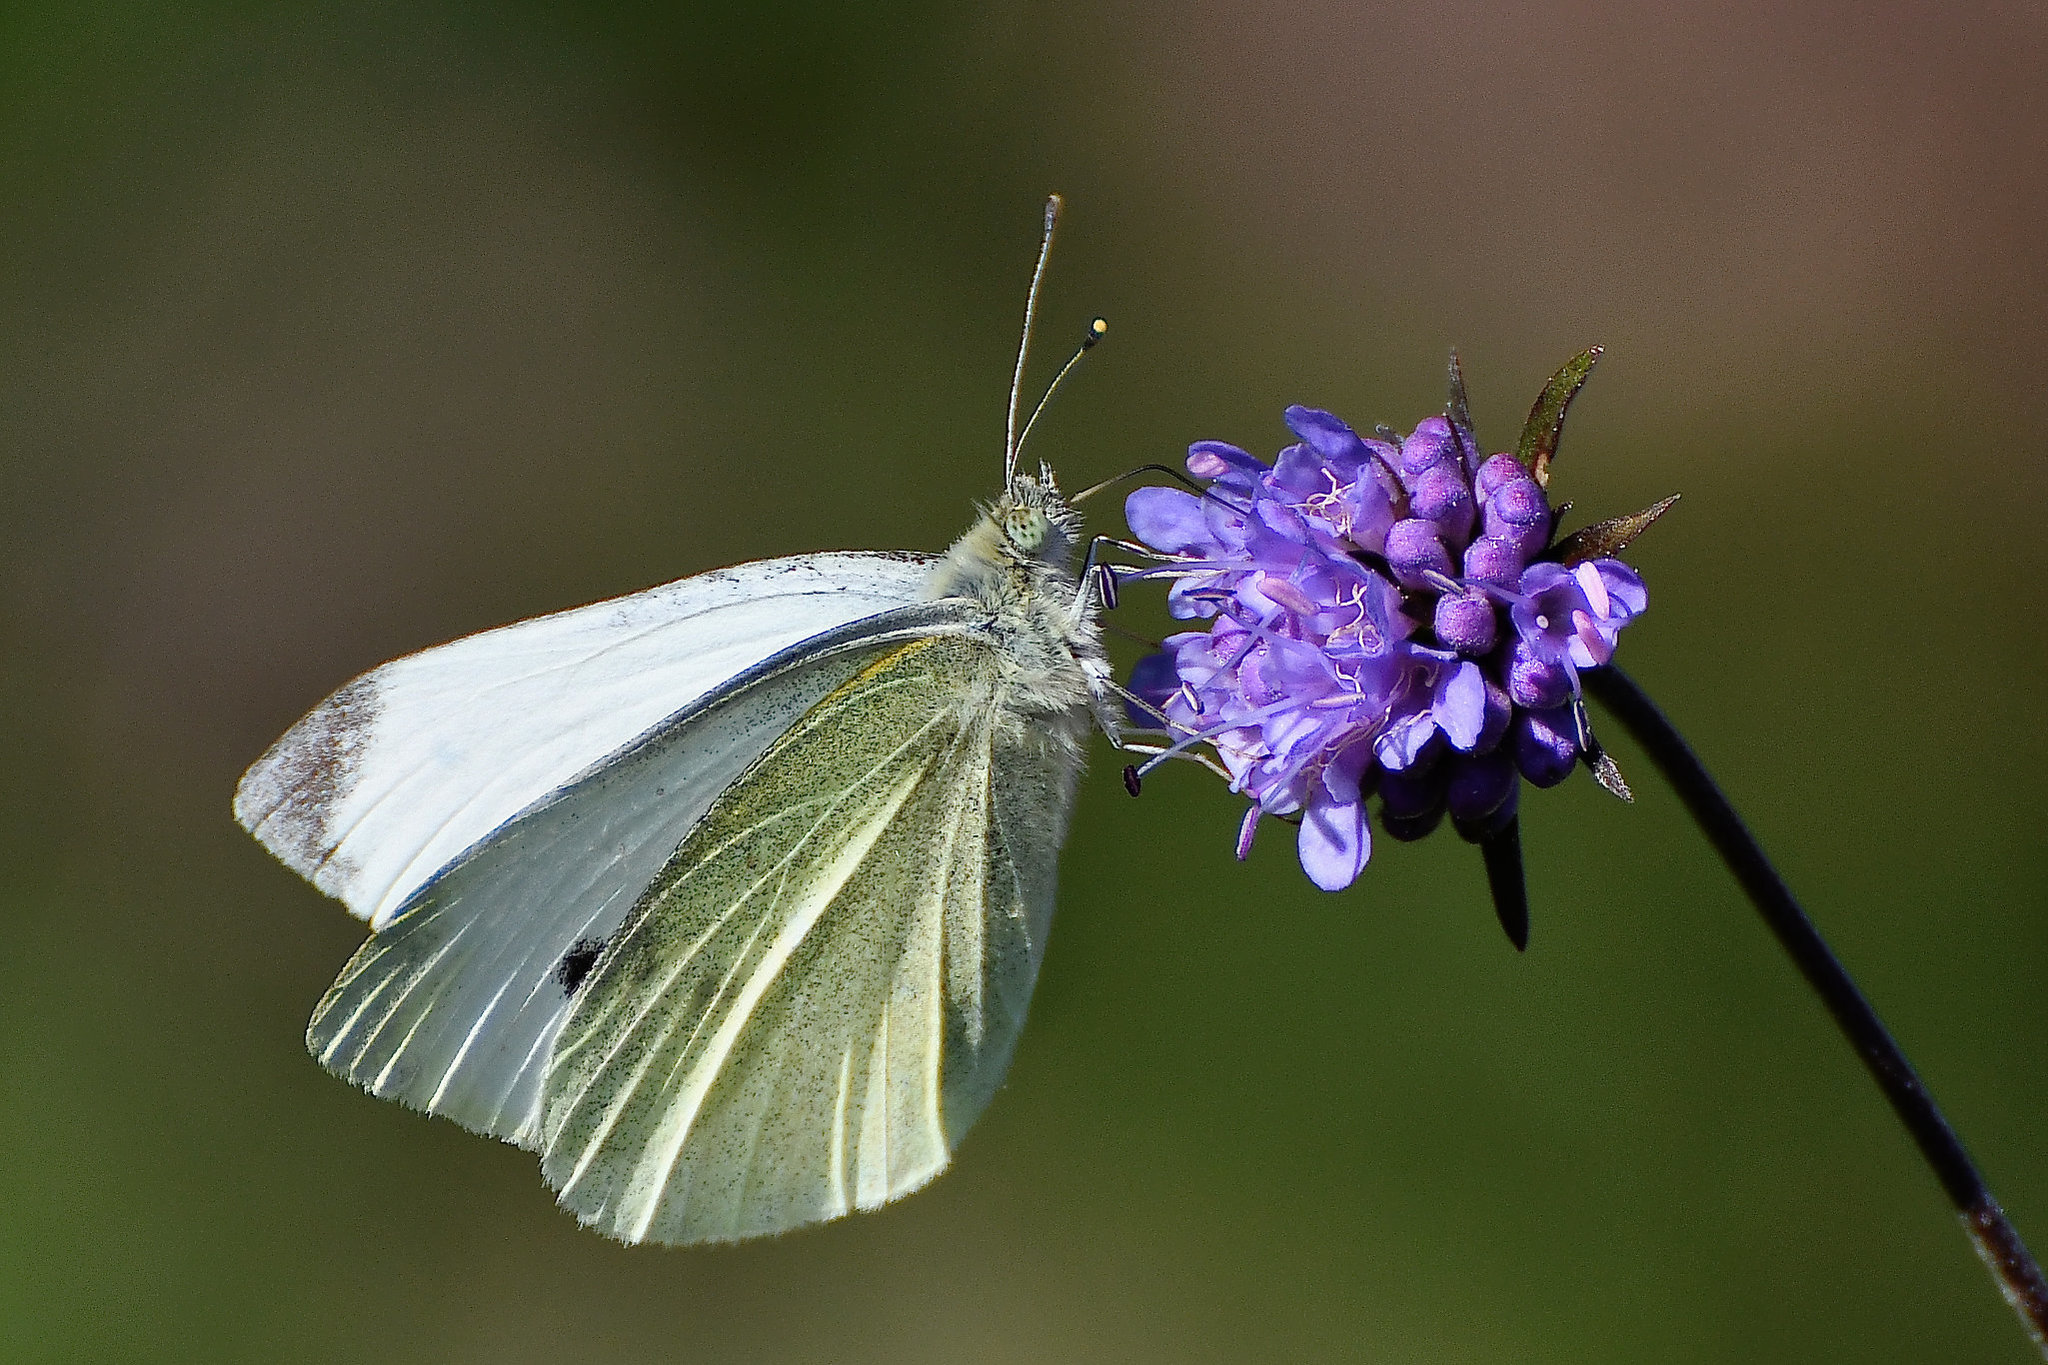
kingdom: Animalia
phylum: Arthropoda
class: Insecta
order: Lepidoptera
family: Pieridae
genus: Pieris
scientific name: Pieris rapae
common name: Small white
